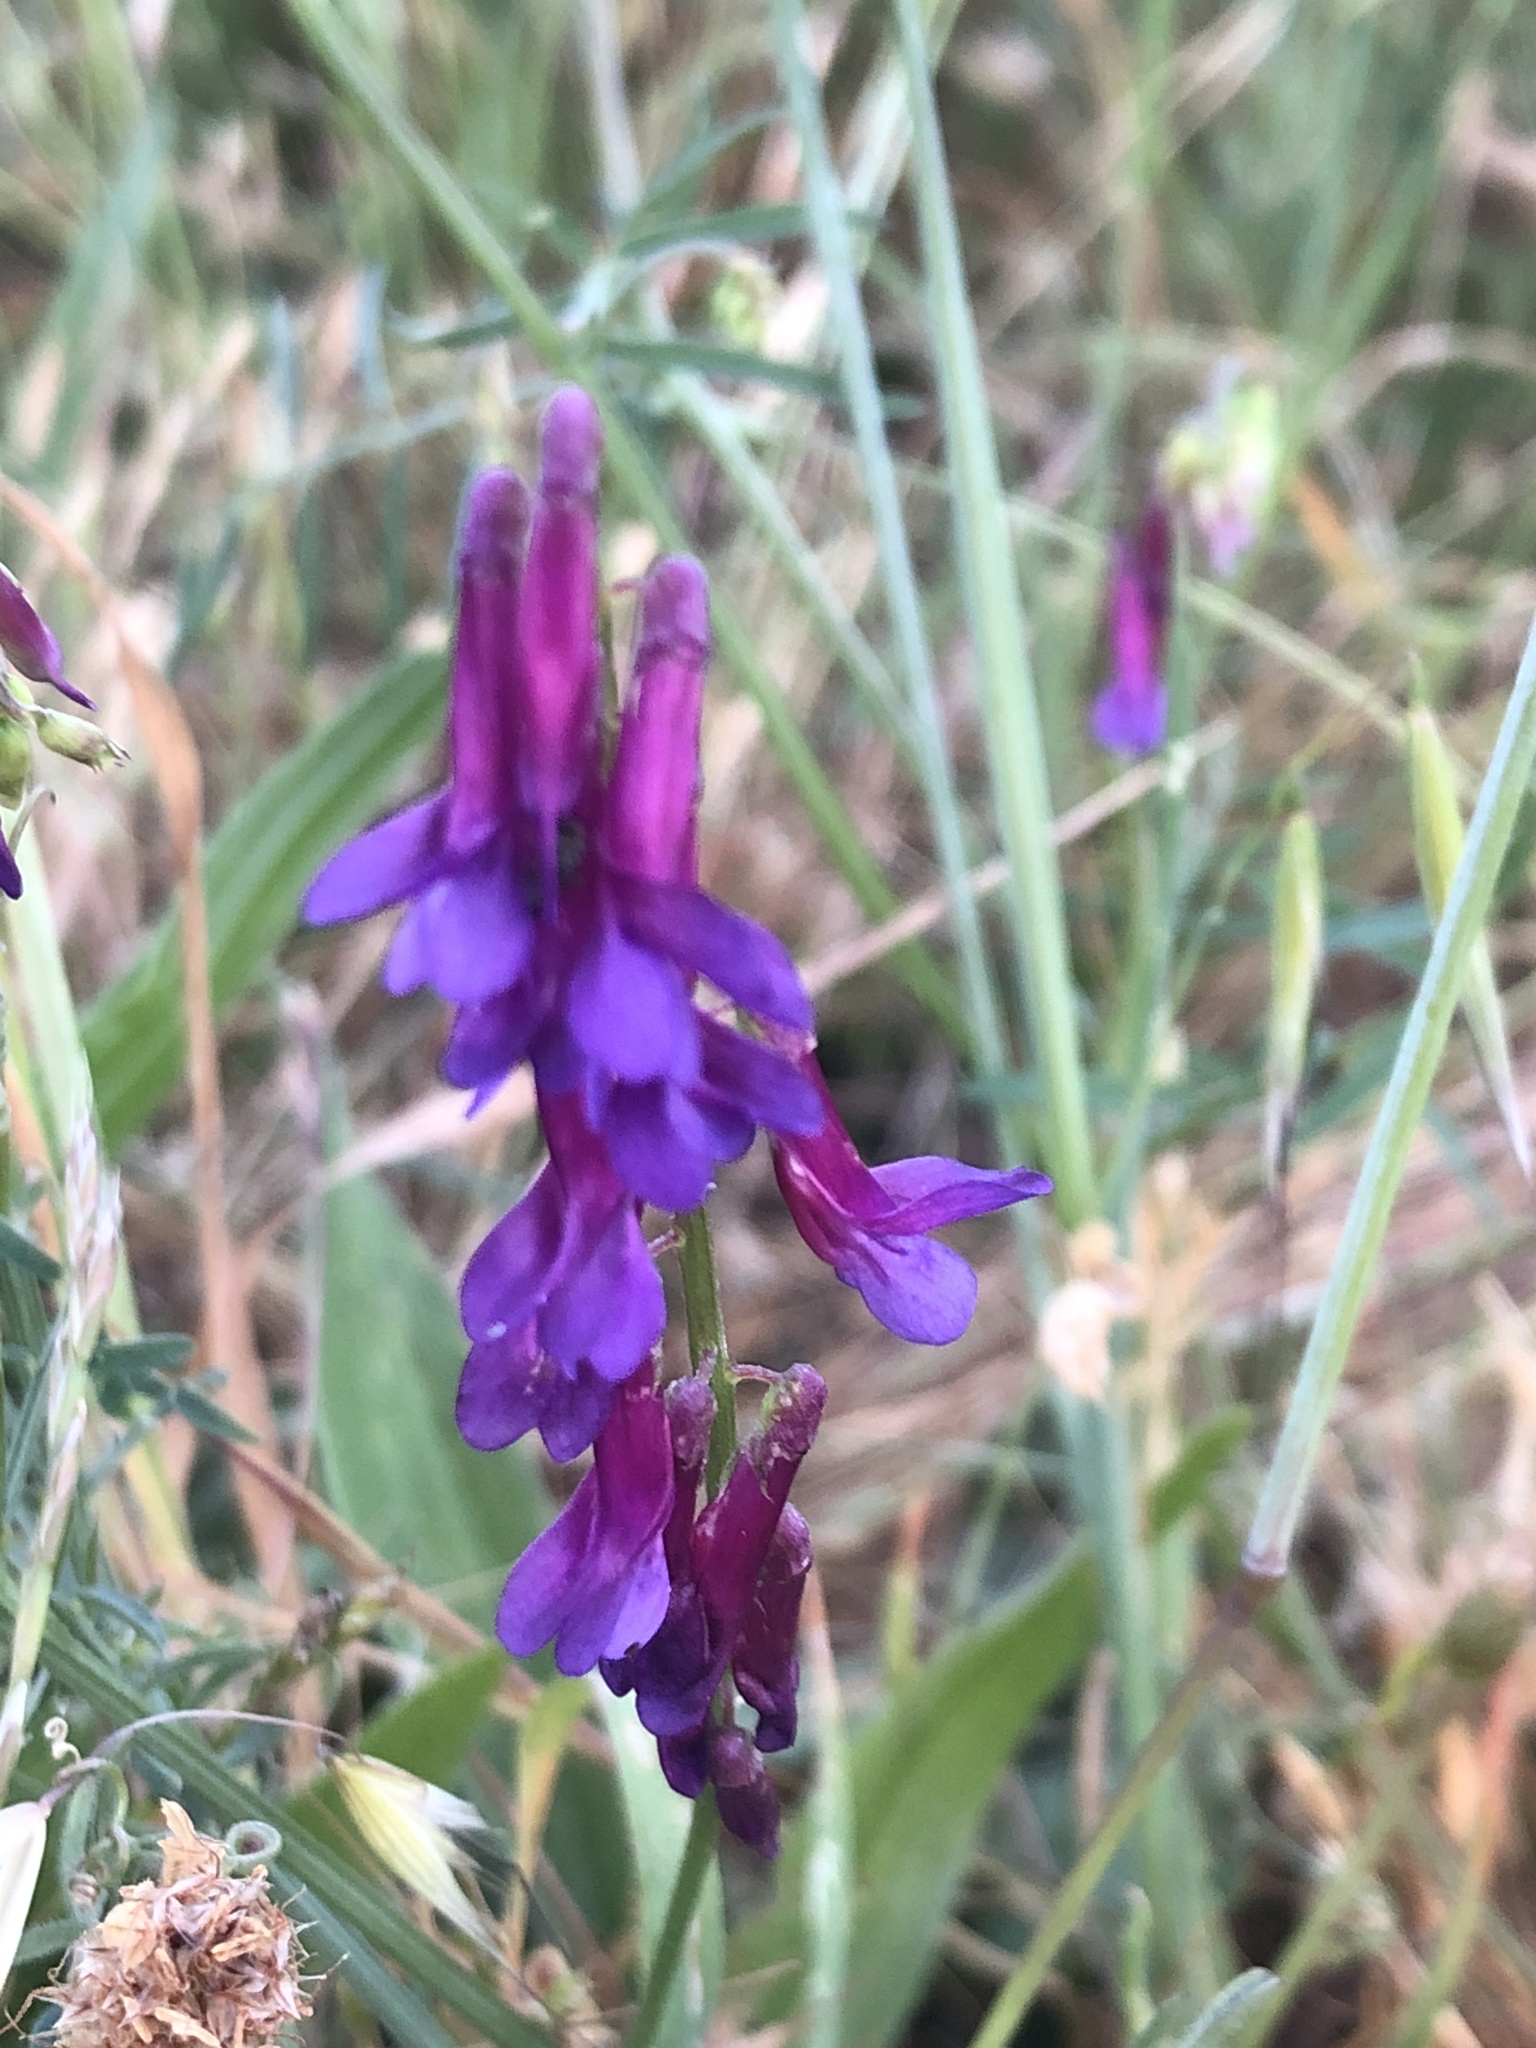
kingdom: Plantae
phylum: Tracheophyta
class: Magnoliopsida
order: Fabales
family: Fabaceae
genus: Vicia
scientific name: Vicia villosa
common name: Fodder vetch
